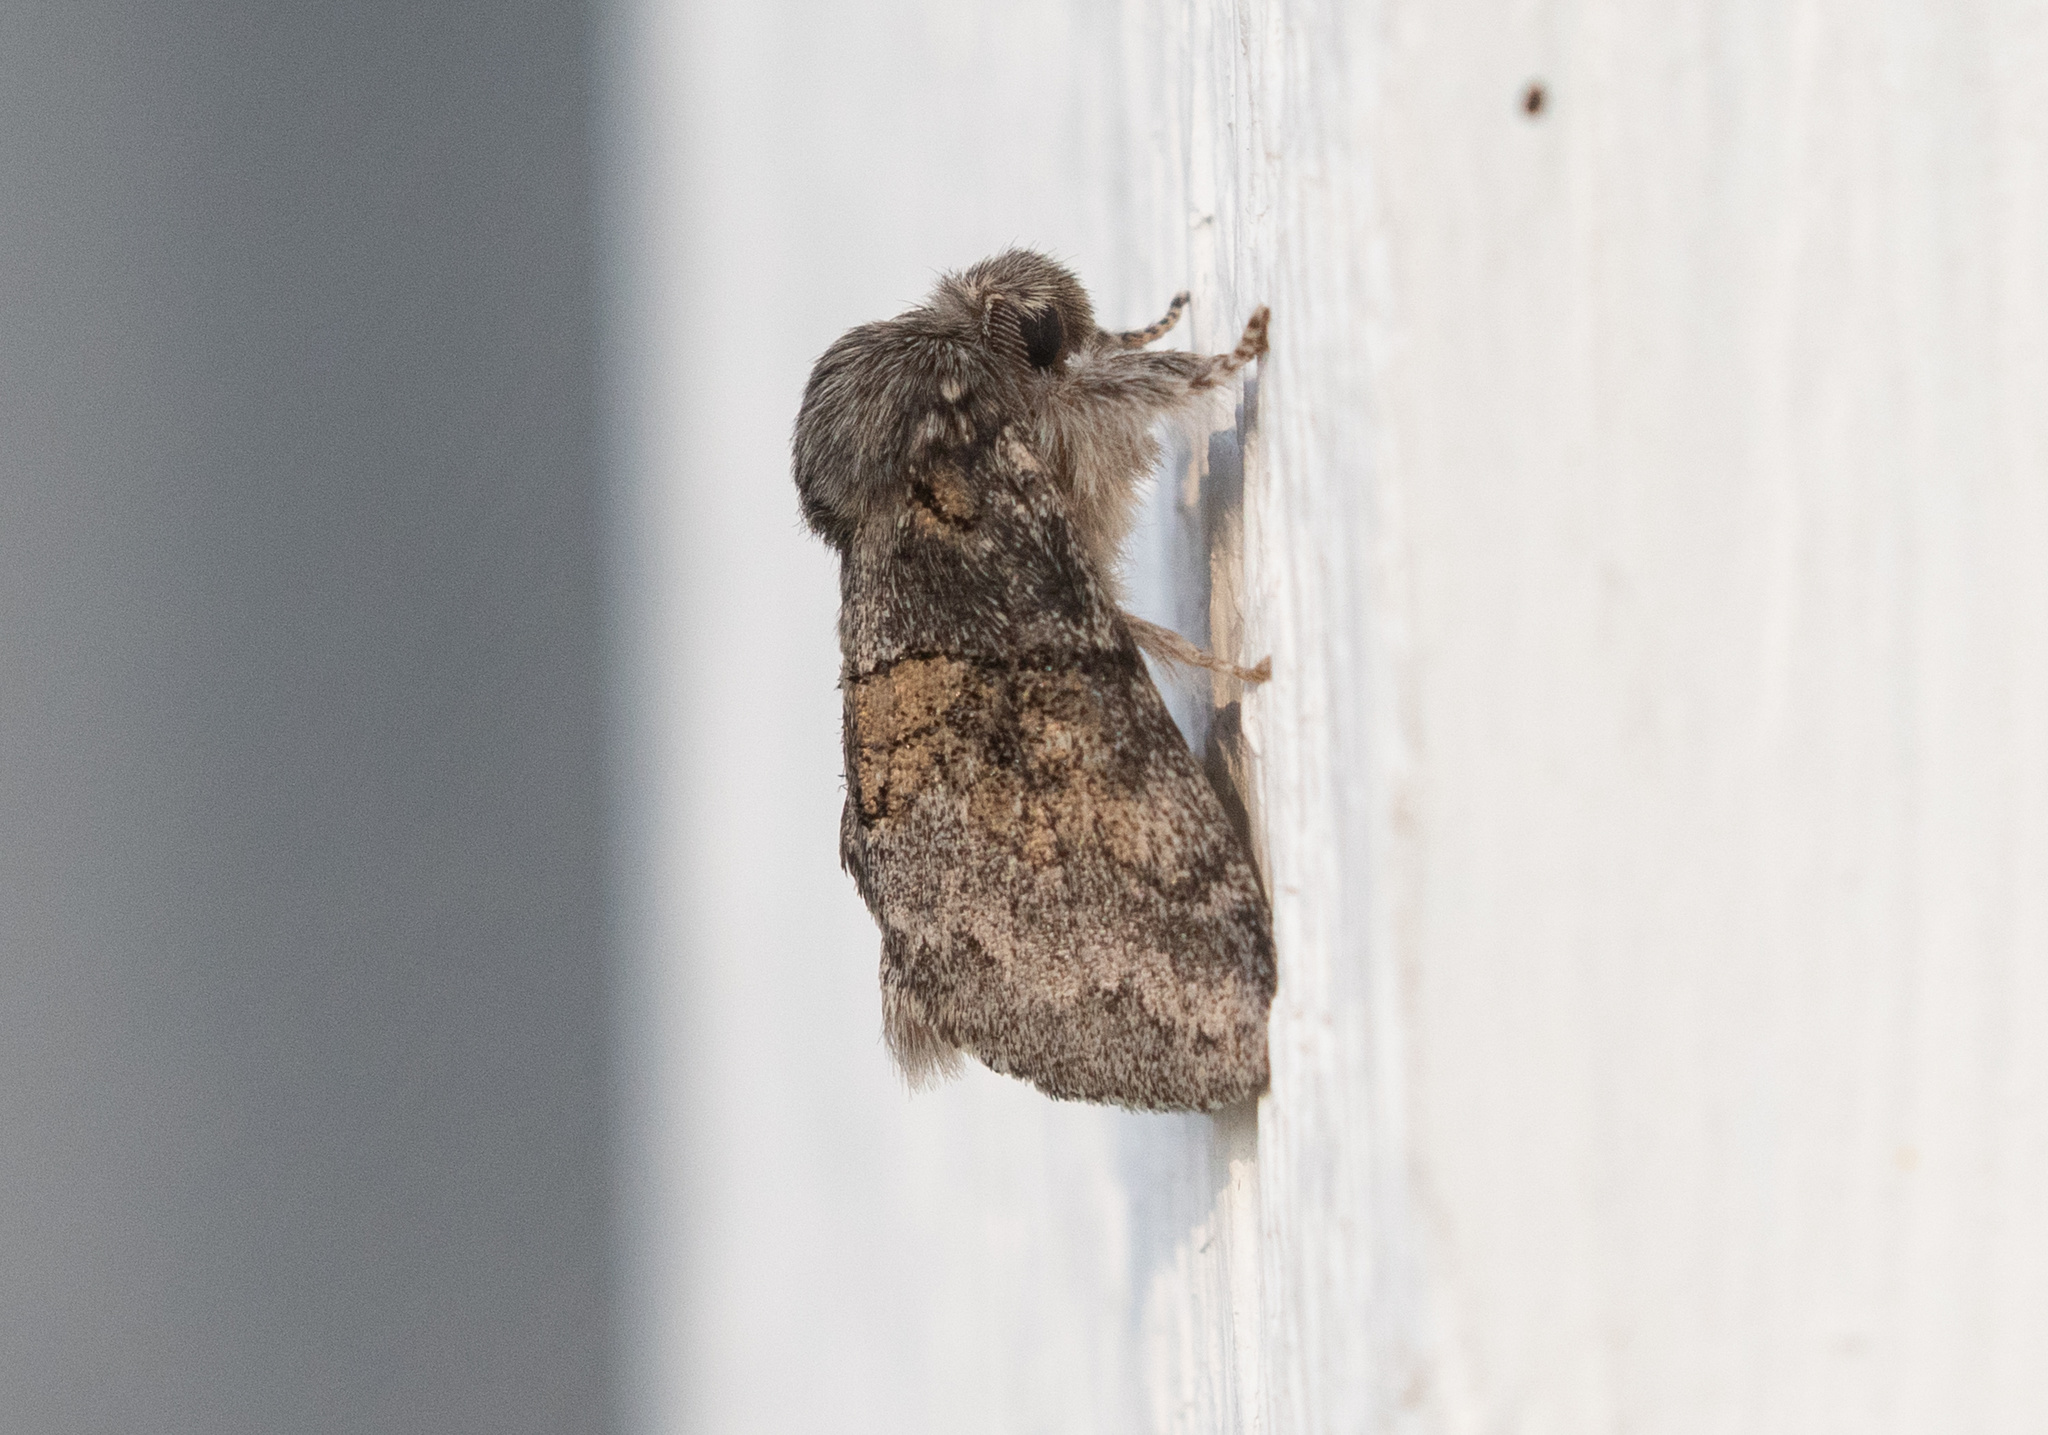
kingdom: Animalia
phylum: Arthropoda
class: Insecta
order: Lepidoptera
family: Notodontidae
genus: Gluphisia
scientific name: Gluphisia septentrionis
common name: Common gluphisia
